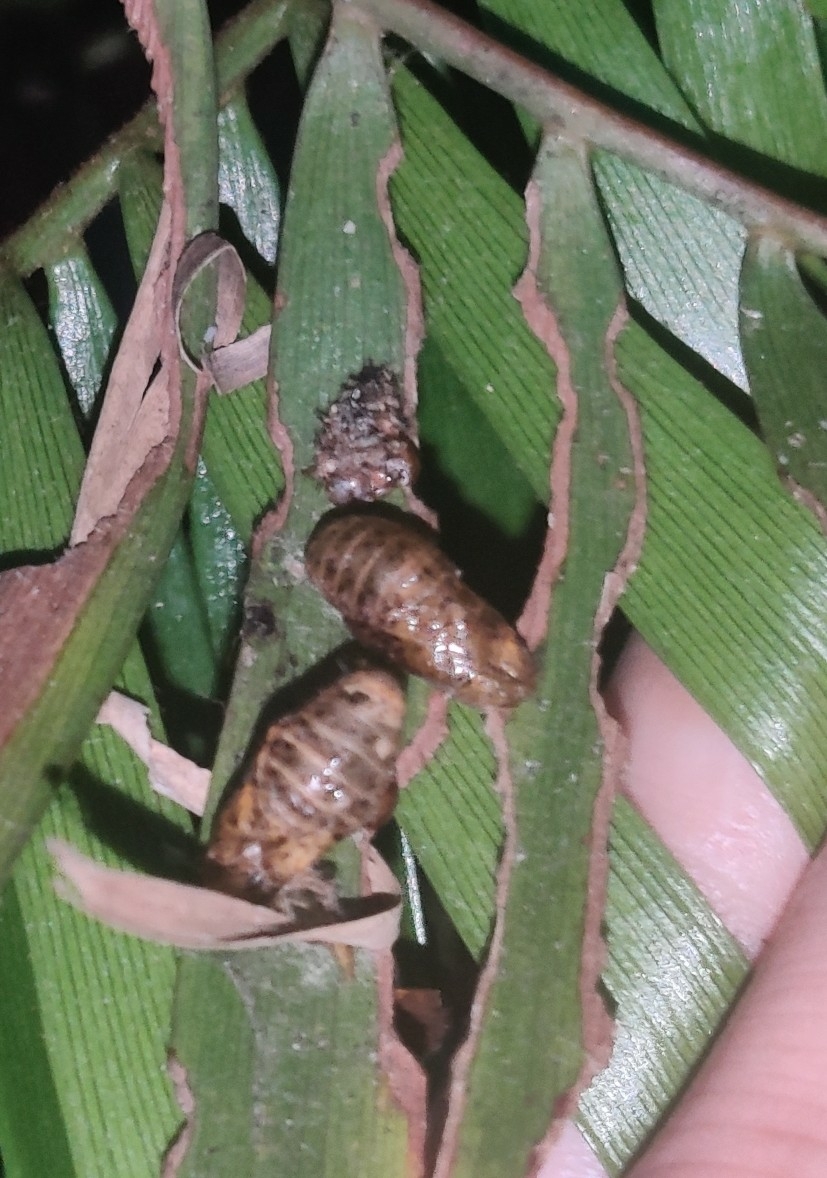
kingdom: Animalia
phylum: Arthropoda
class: Insecta
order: Lepidoptera
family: Lycaenidae
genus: Eumaeus
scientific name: Eumaeus atala
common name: Atala
